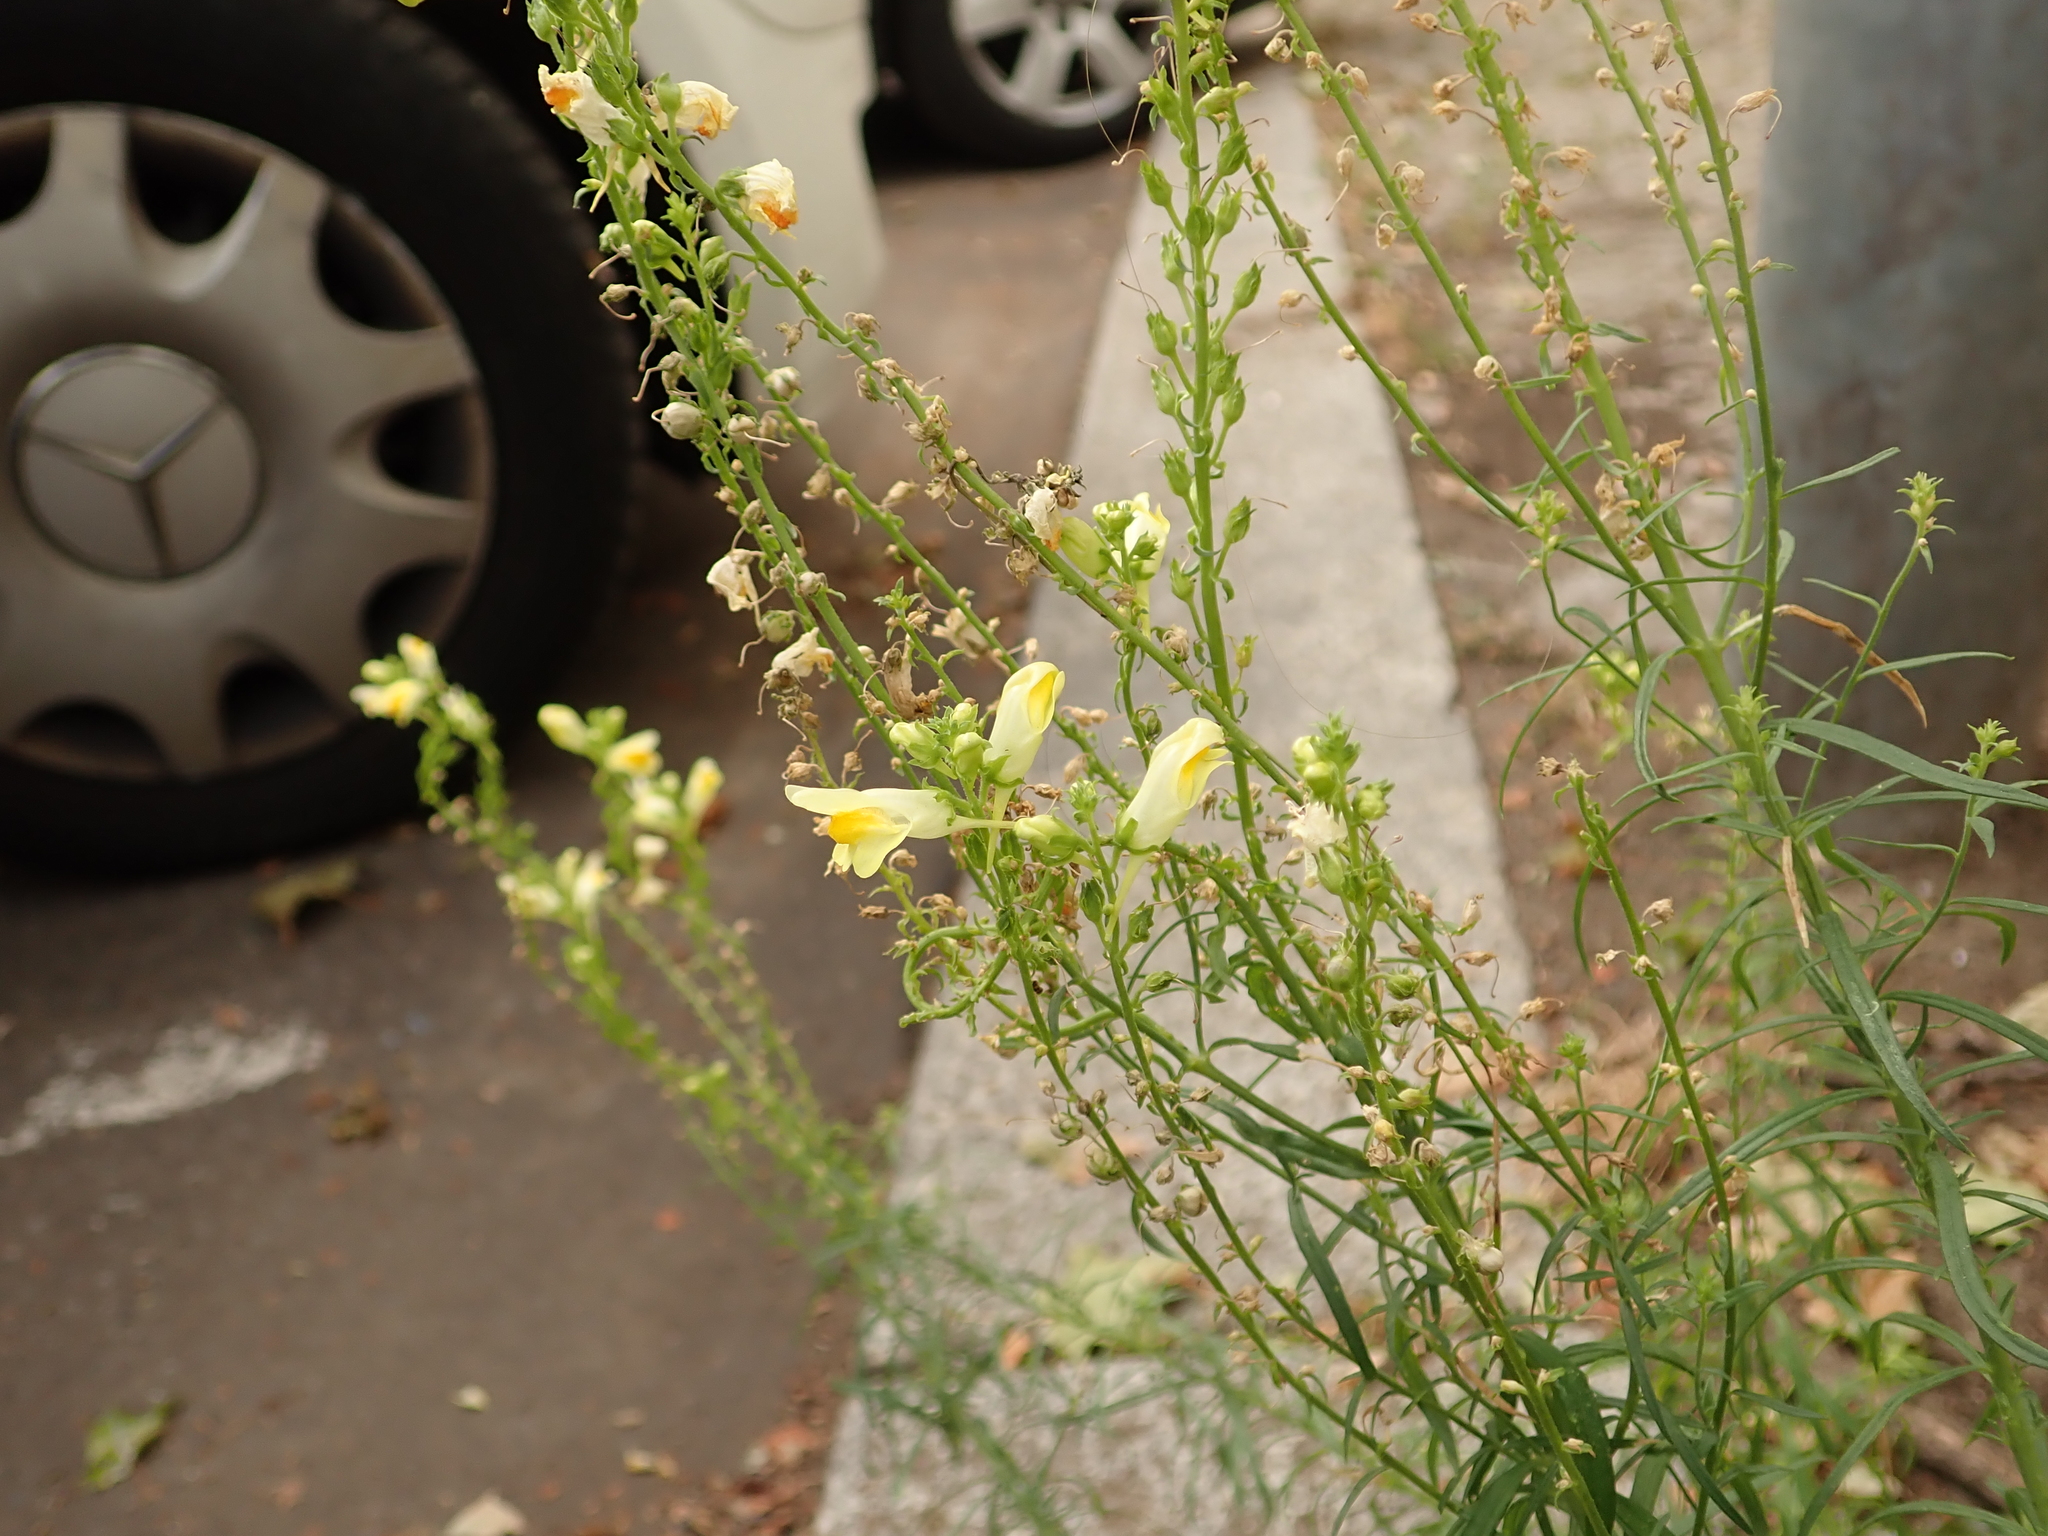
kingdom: Plantae
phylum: Tracheophyta
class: Magnoliopsida
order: Lamiales
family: Plantaginaceae
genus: Linaria
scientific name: Linaria vulgaris
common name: Butter and eggs
